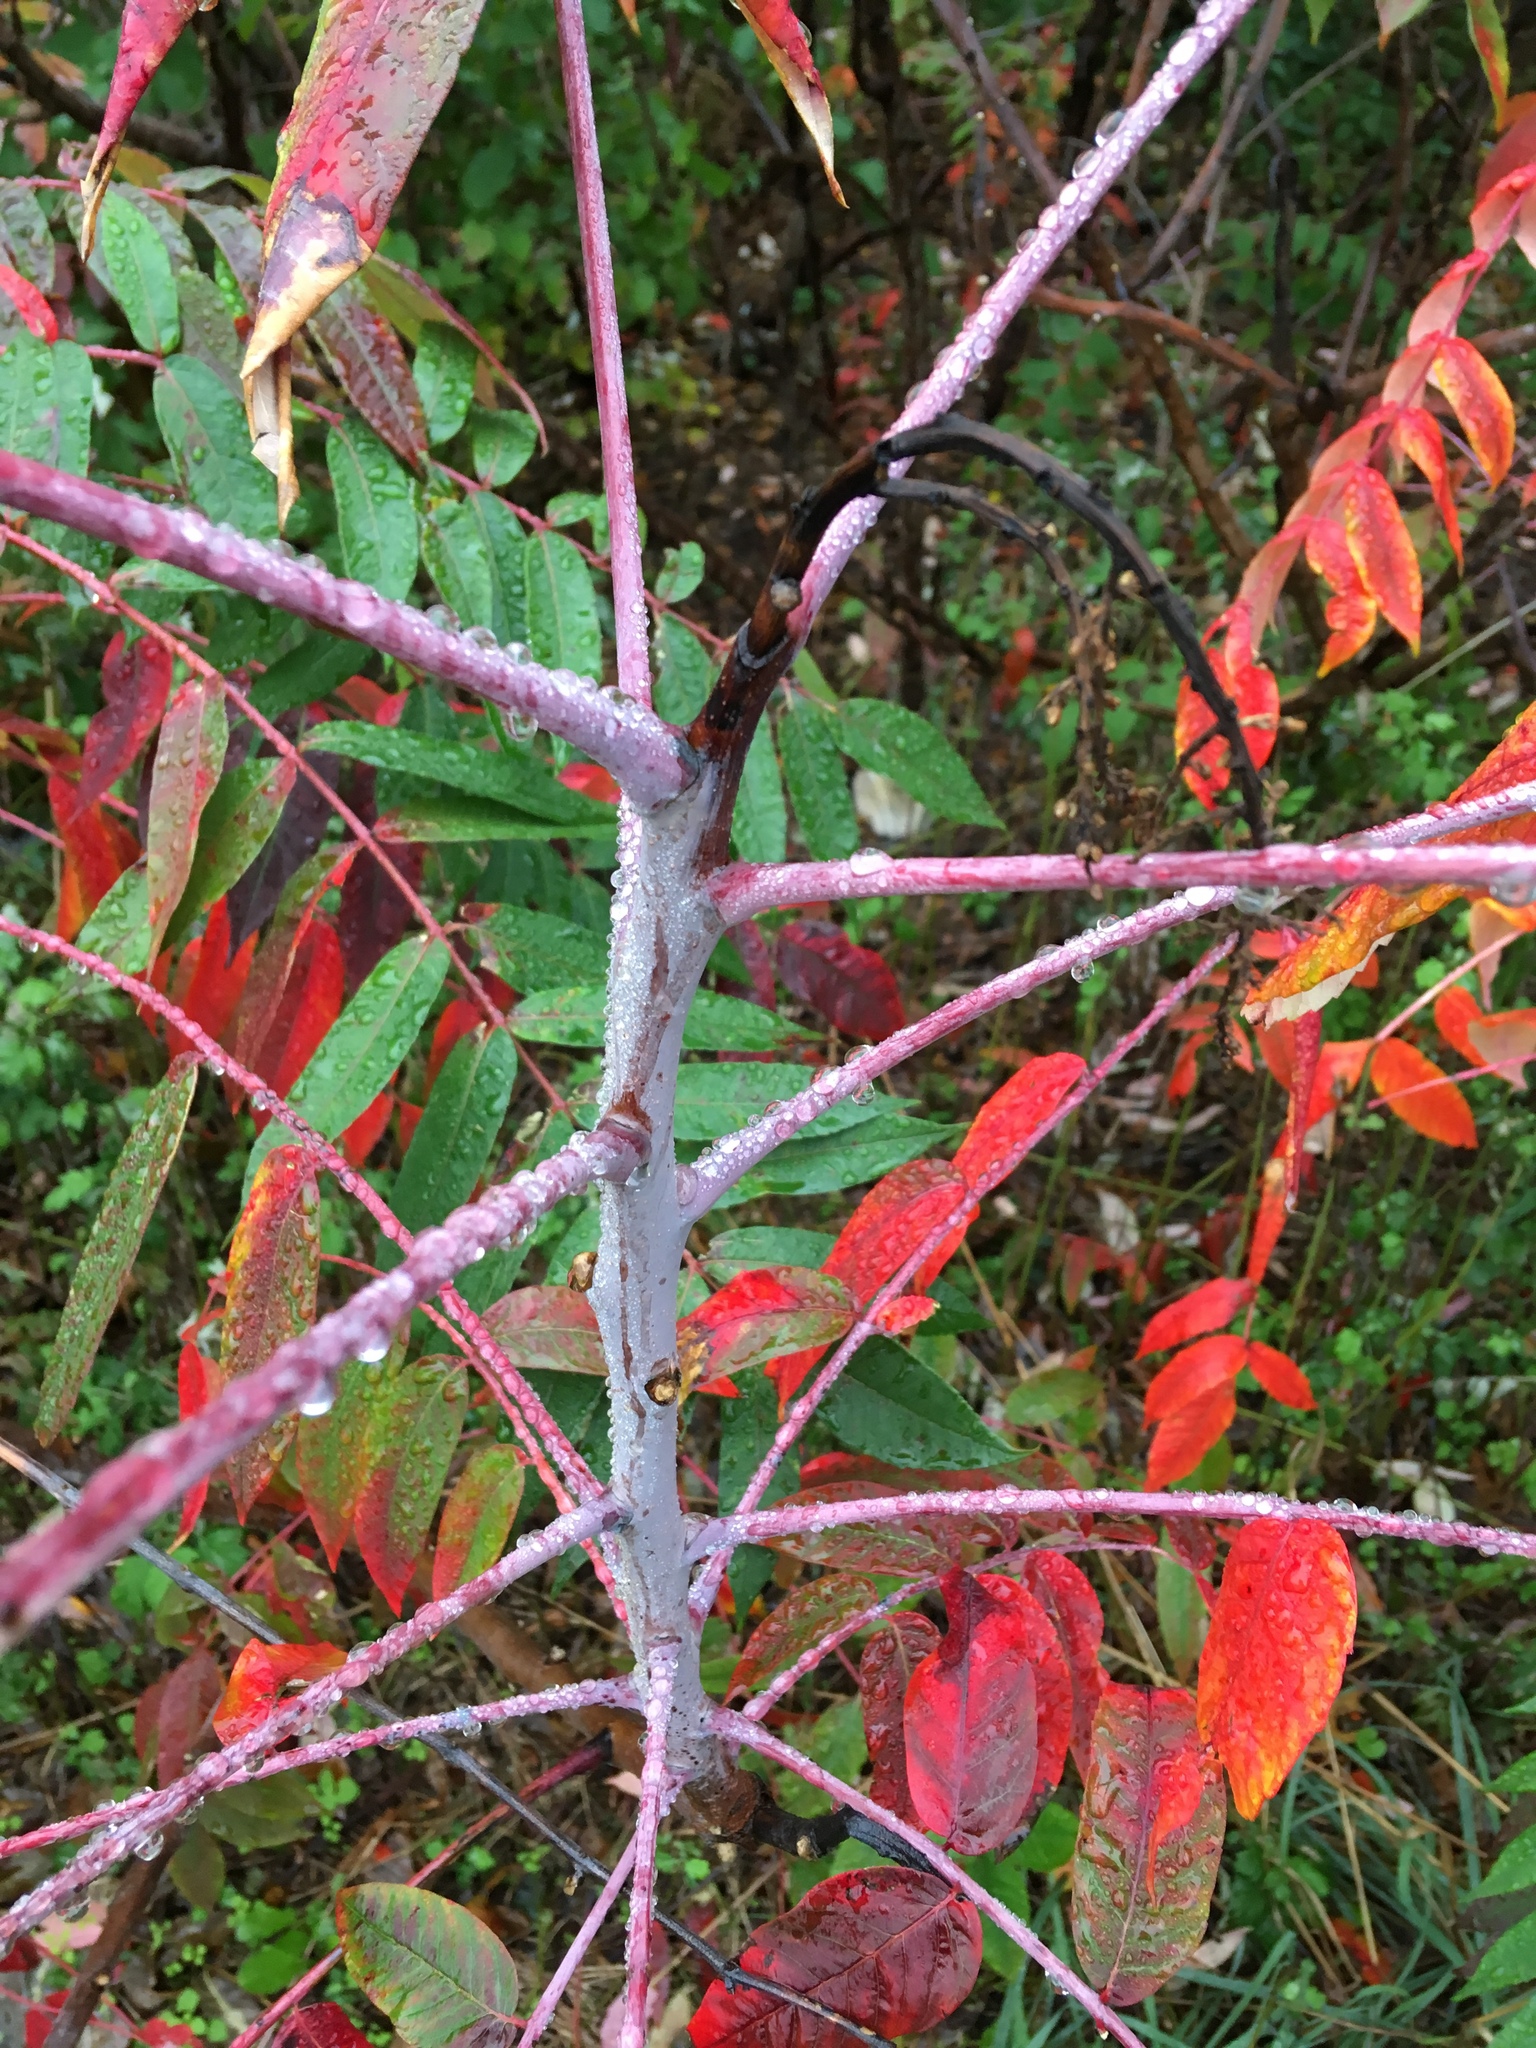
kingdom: Plantae
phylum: Tracheophyta
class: Magnoliopsida
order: Sapindales
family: Anacardiaceae
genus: Rhus
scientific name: Rhus glabra
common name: Scarlet sumac
